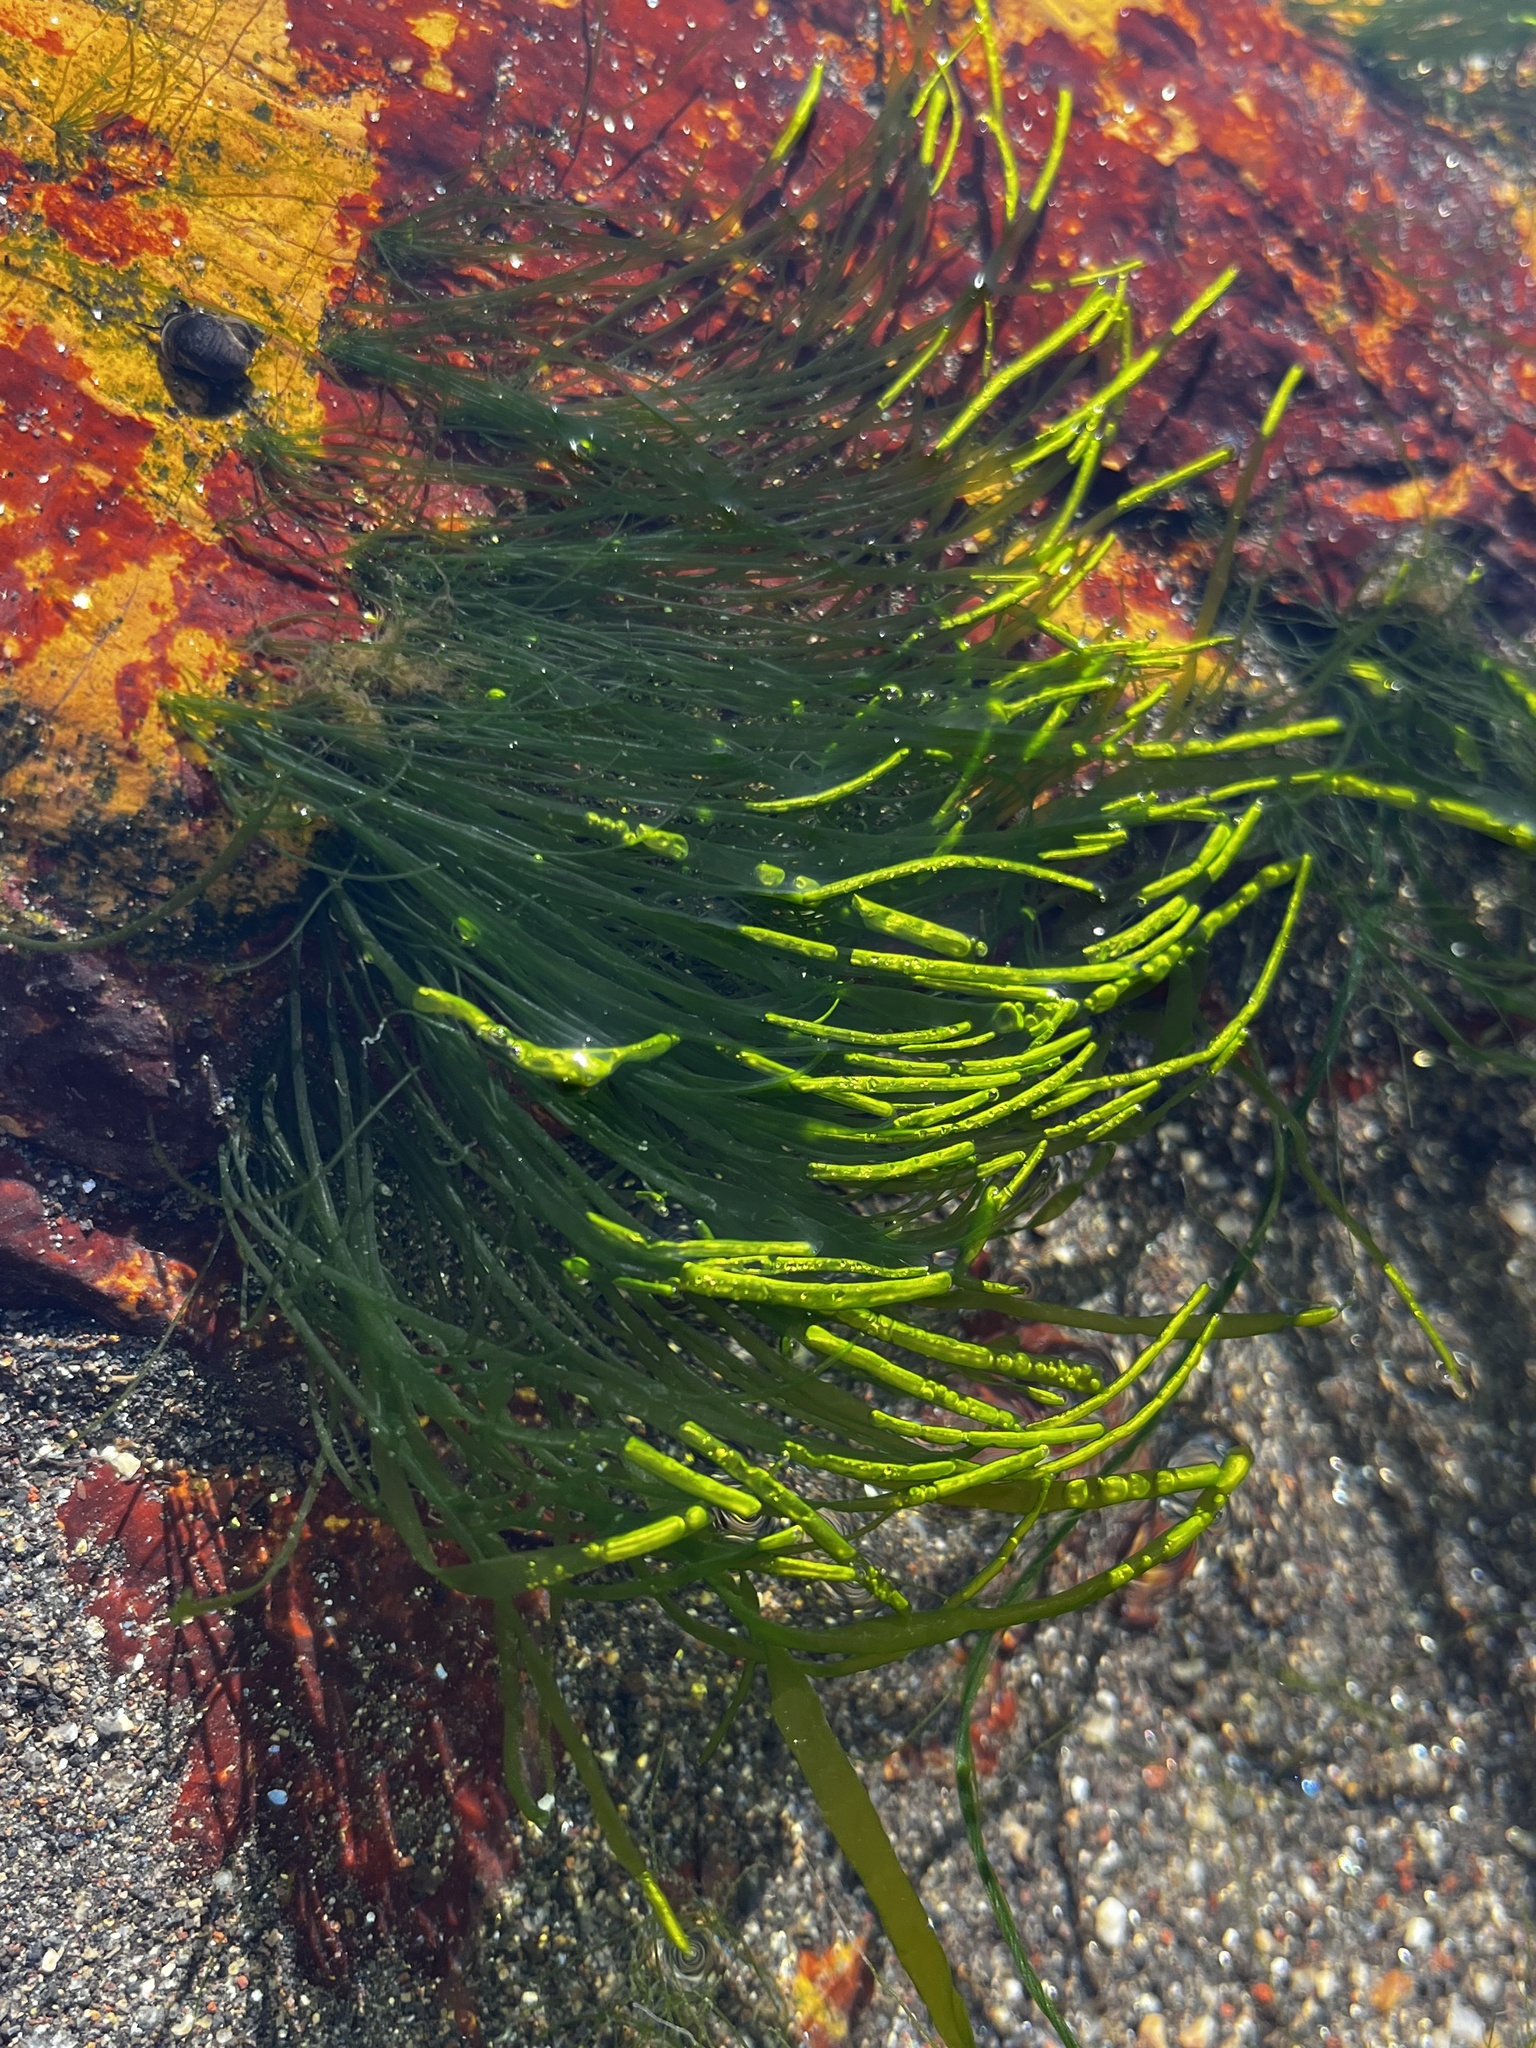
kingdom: Plantae
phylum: Chlorophyta
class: Ulvophyceae
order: Ulvales
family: Ulvaceae
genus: Ulva
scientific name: Ulva intestinalis
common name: Gut weed
